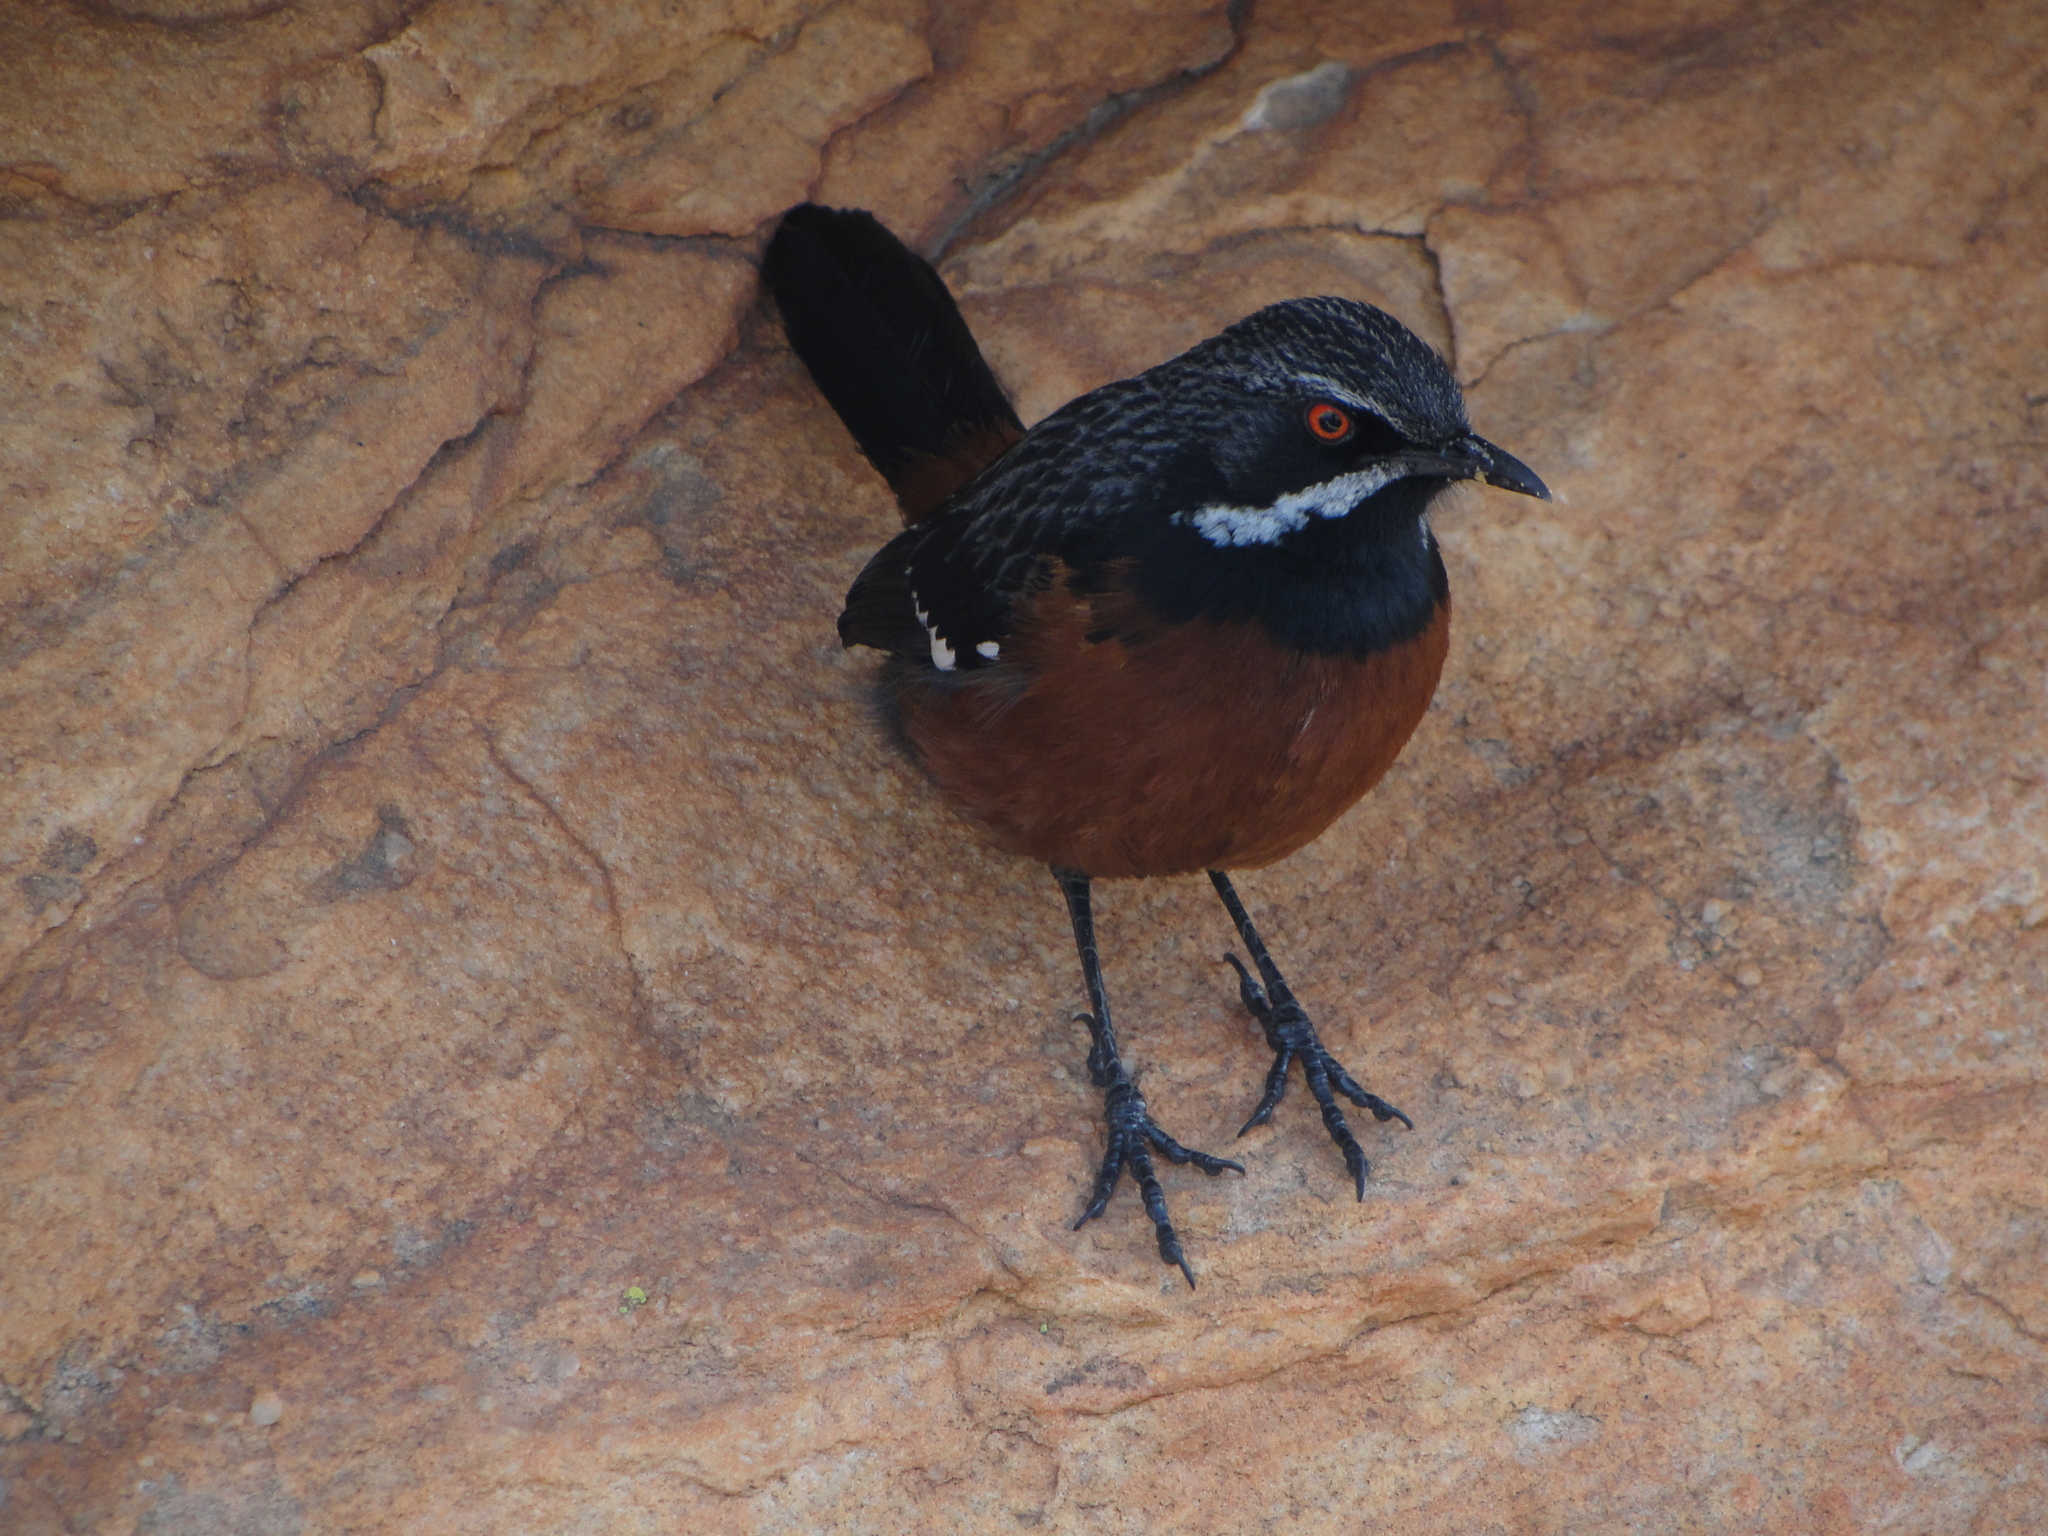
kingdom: Animalia
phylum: Chordata
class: Aves
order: Passeriformes
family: Chaetopidae
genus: Chaetops
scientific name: Chaetops frenatus
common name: Cape rockjumper
